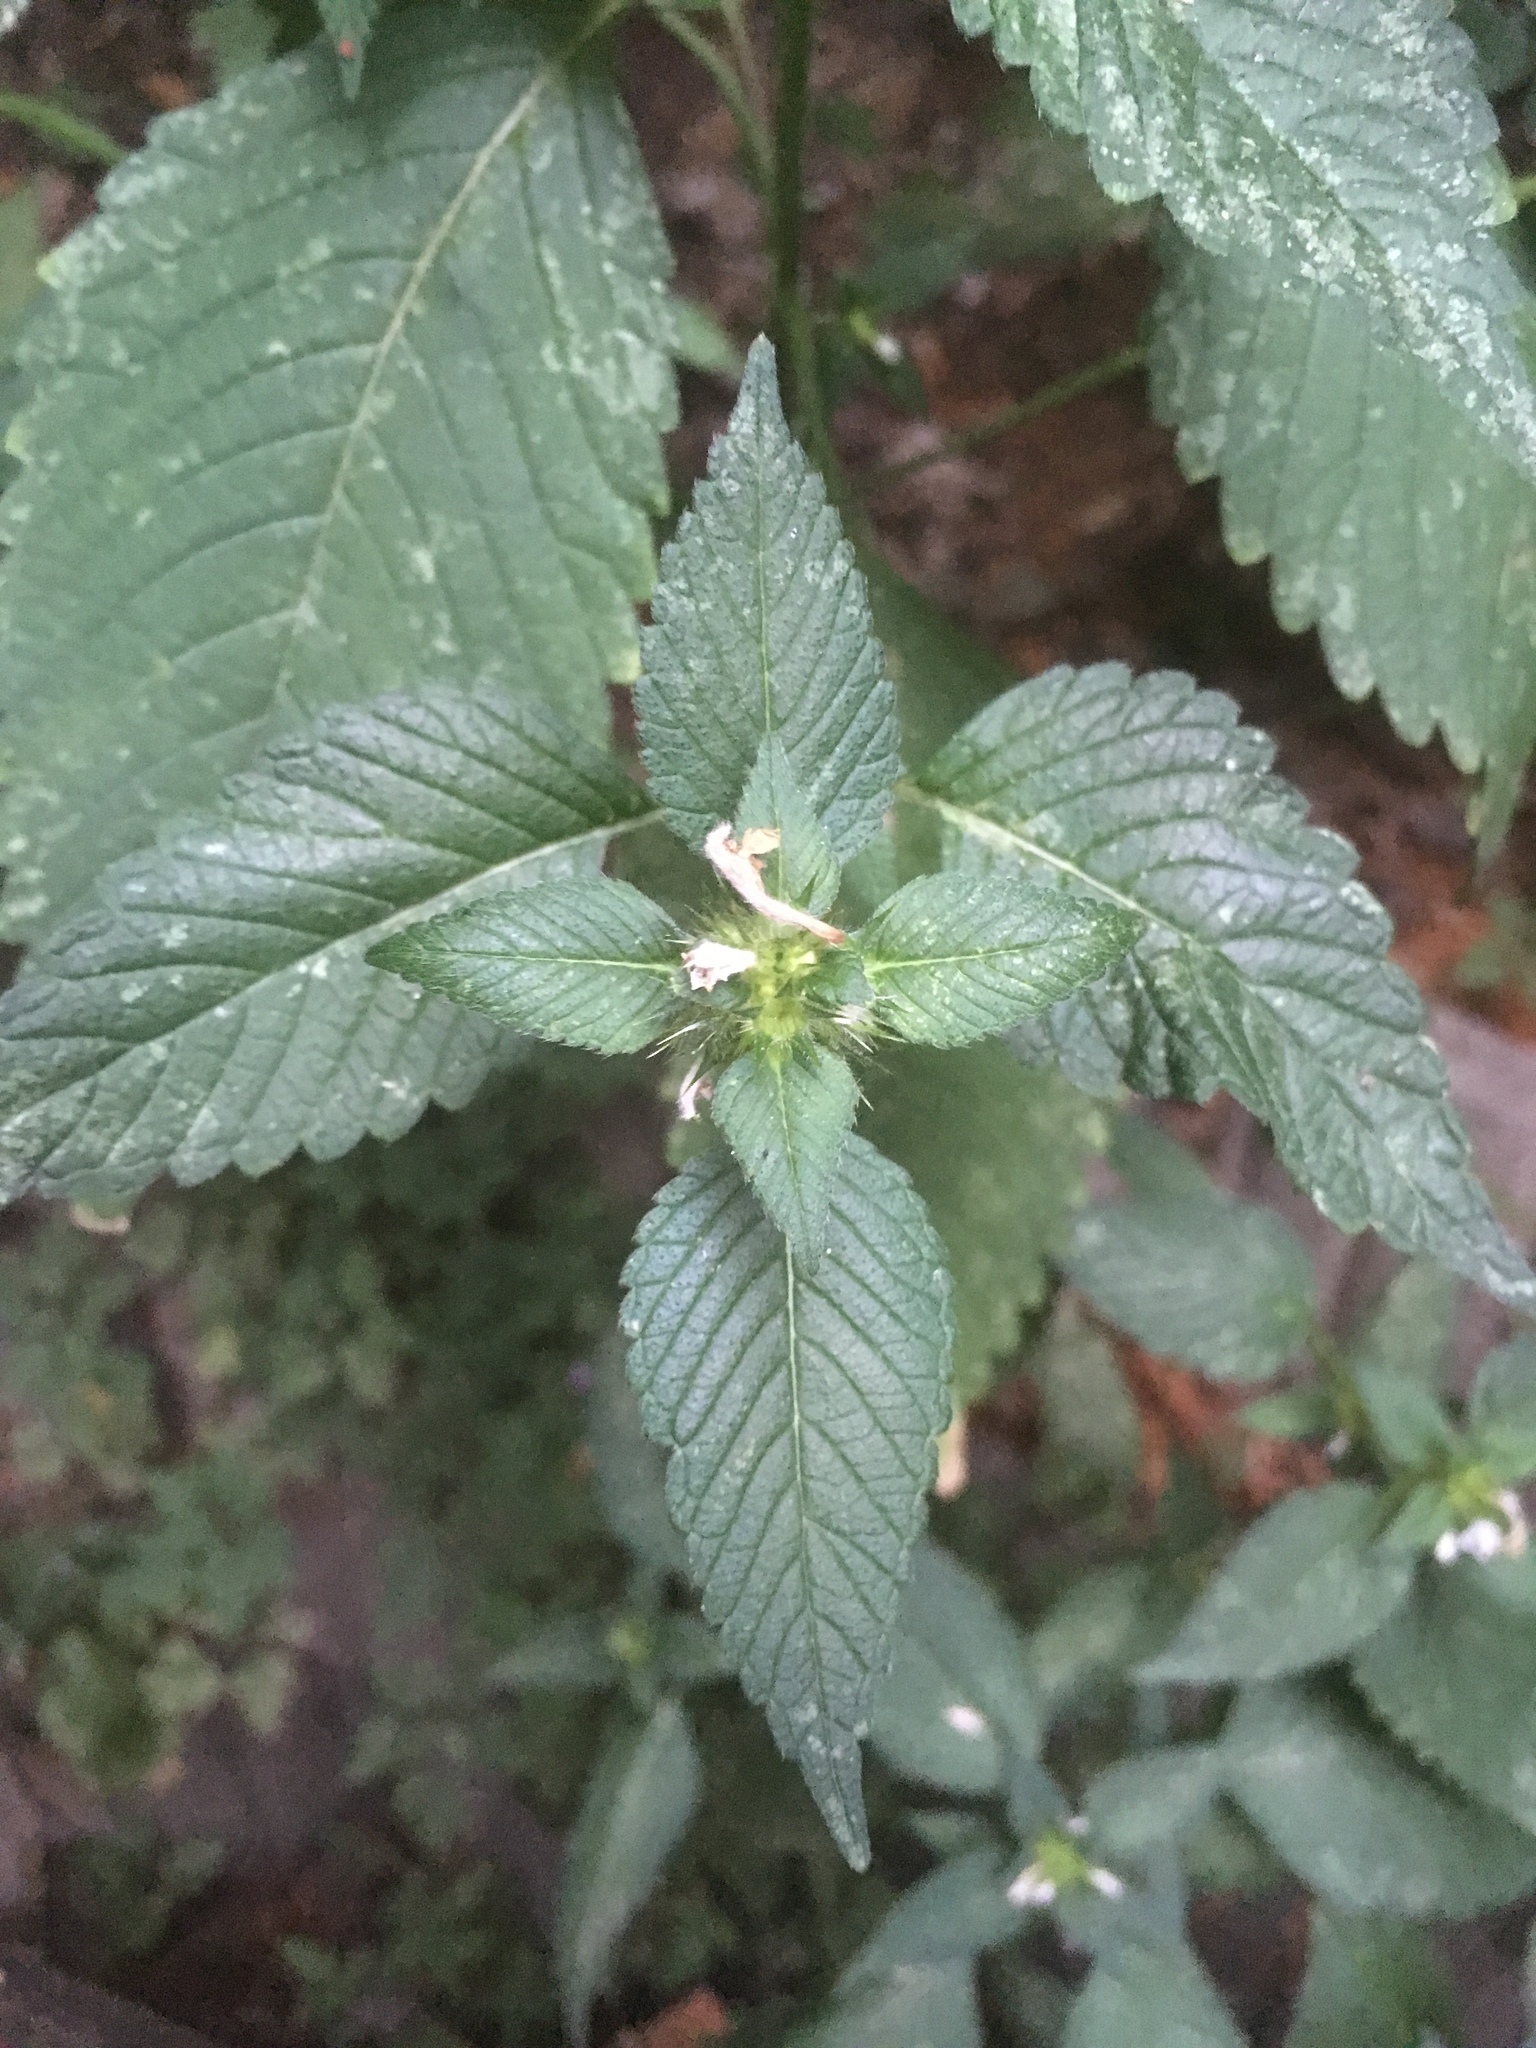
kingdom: Plantae
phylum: Tracheophyta
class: Magnoliopsida
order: Lamiales
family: Lamiaceae
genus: Galeopsis
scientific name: Galeopsis tetrahit
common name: Common hemp-nettle
